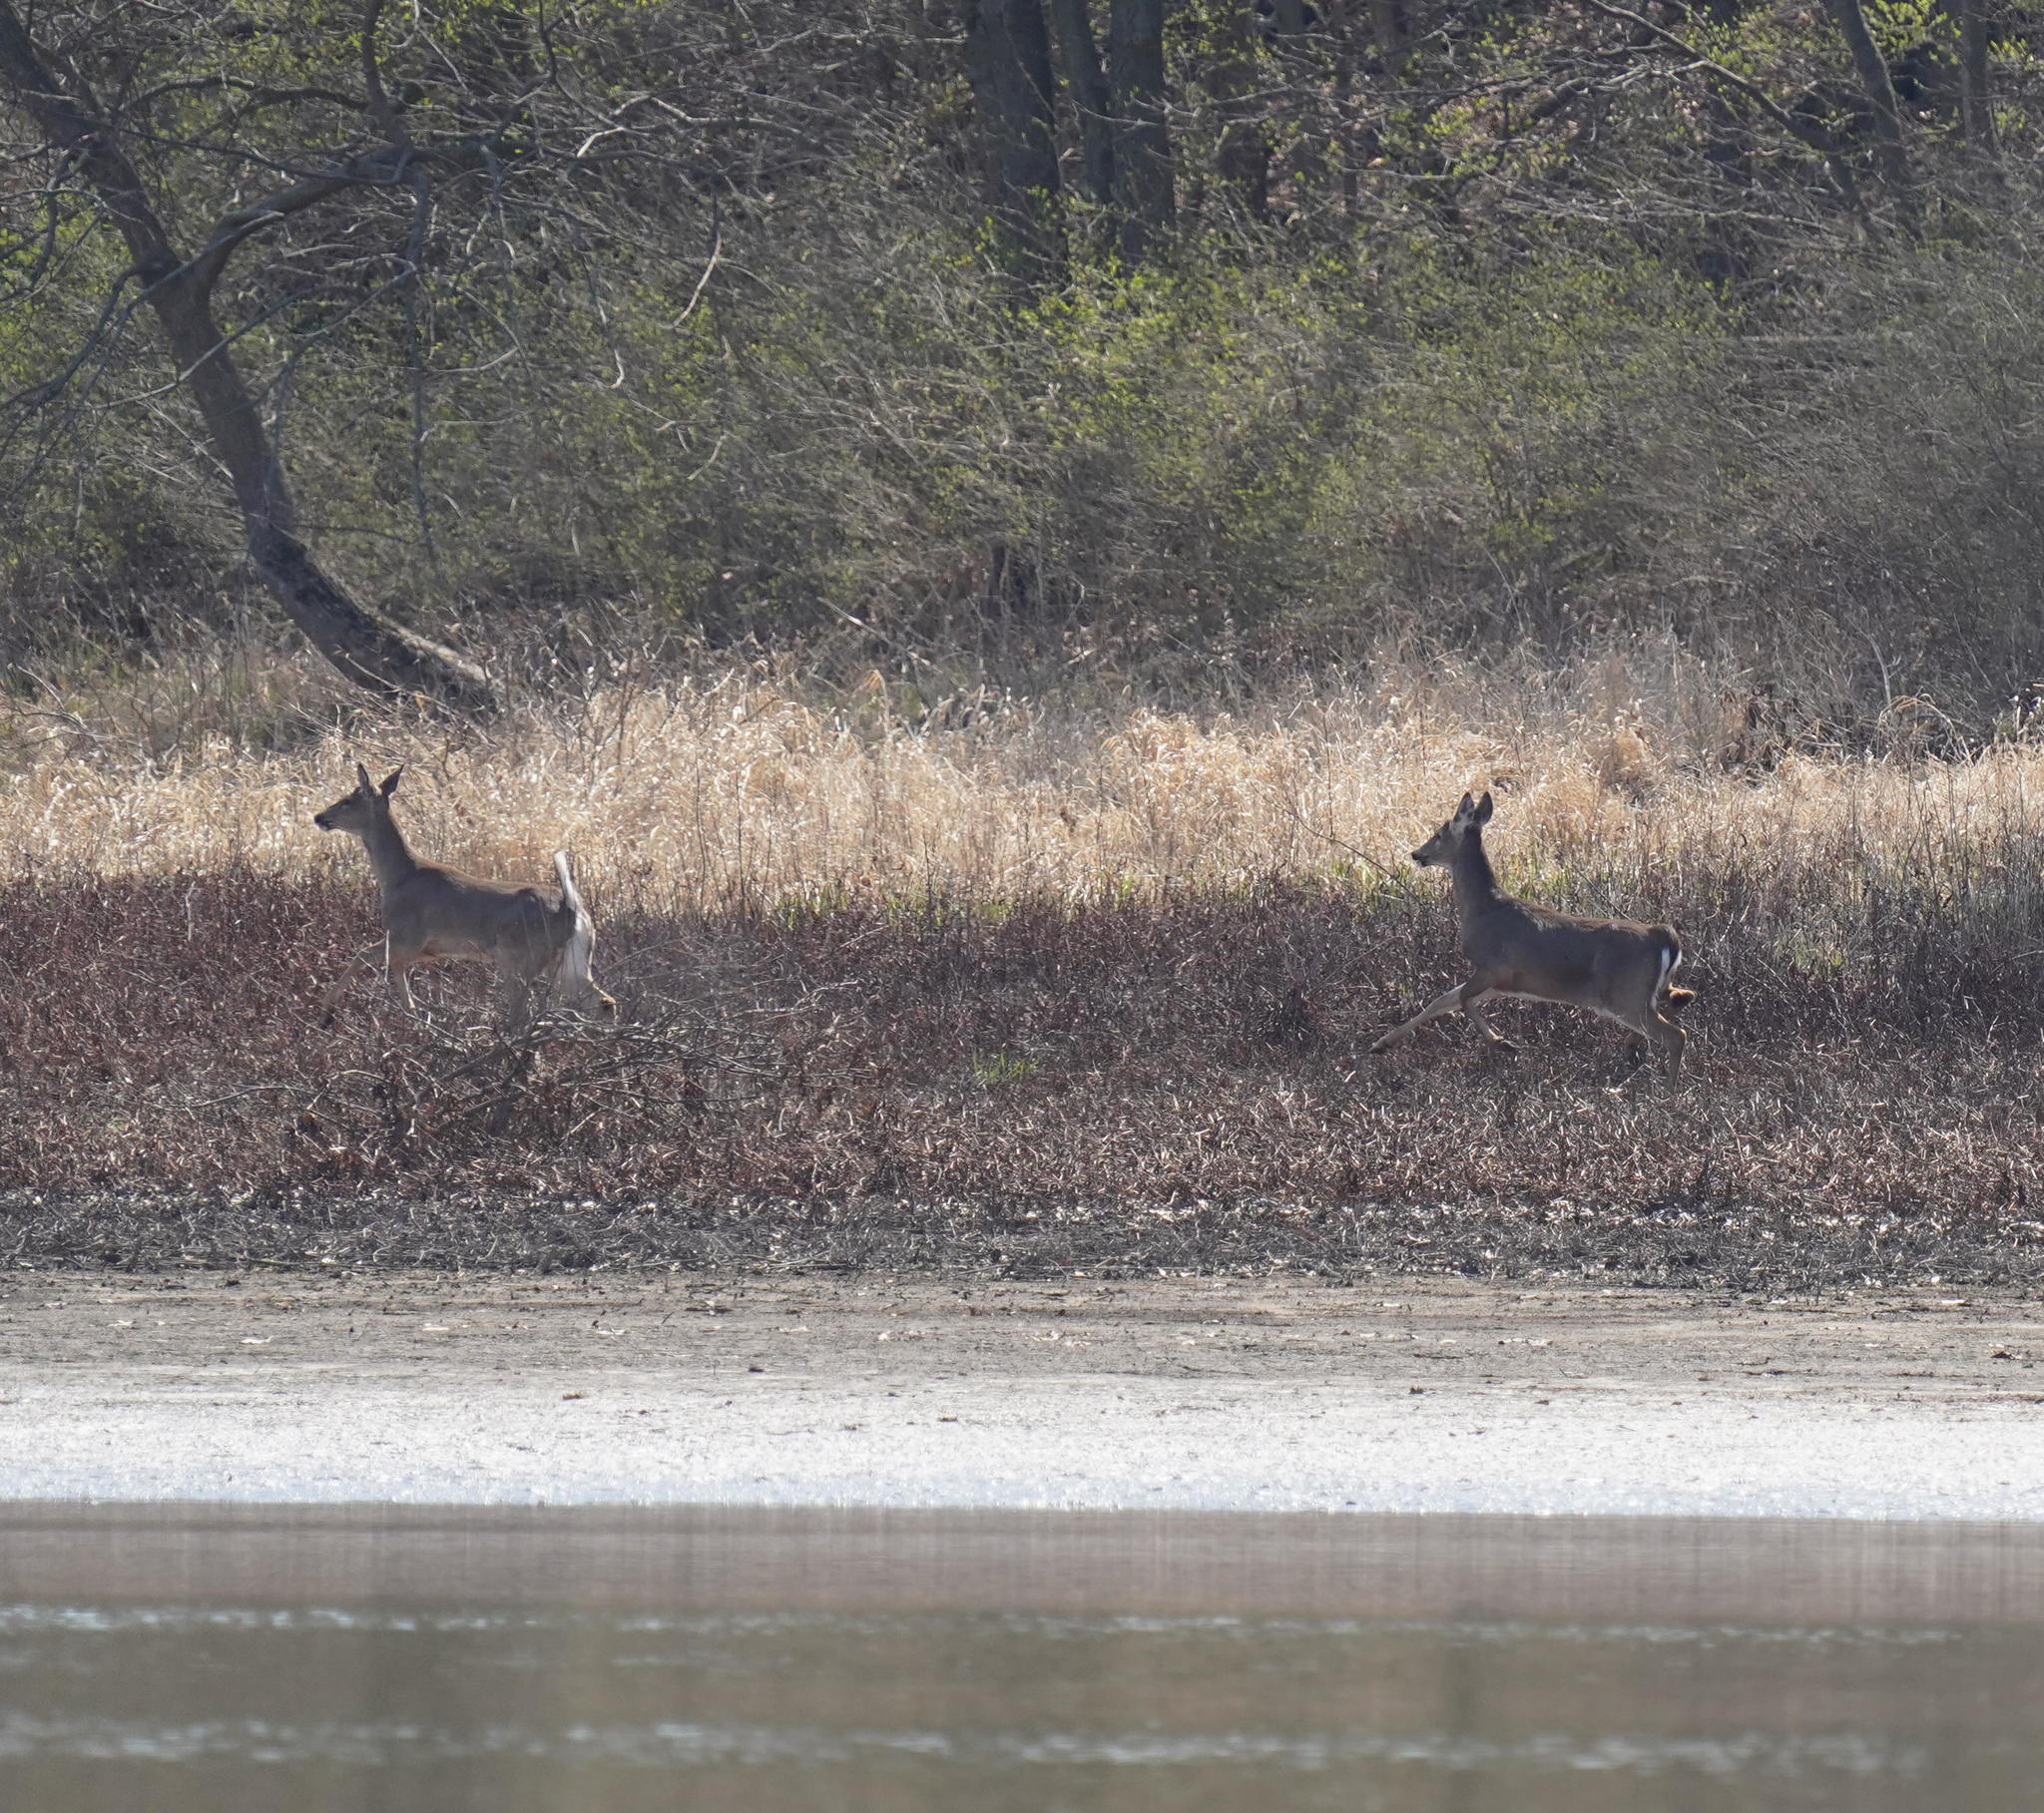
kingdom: Animalia
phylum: Chordata
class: Mammalia
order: Artiodactyla
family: Cervidae
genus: Odocoileus
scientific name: Odocoileus virginianus
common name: White-tailed deer
